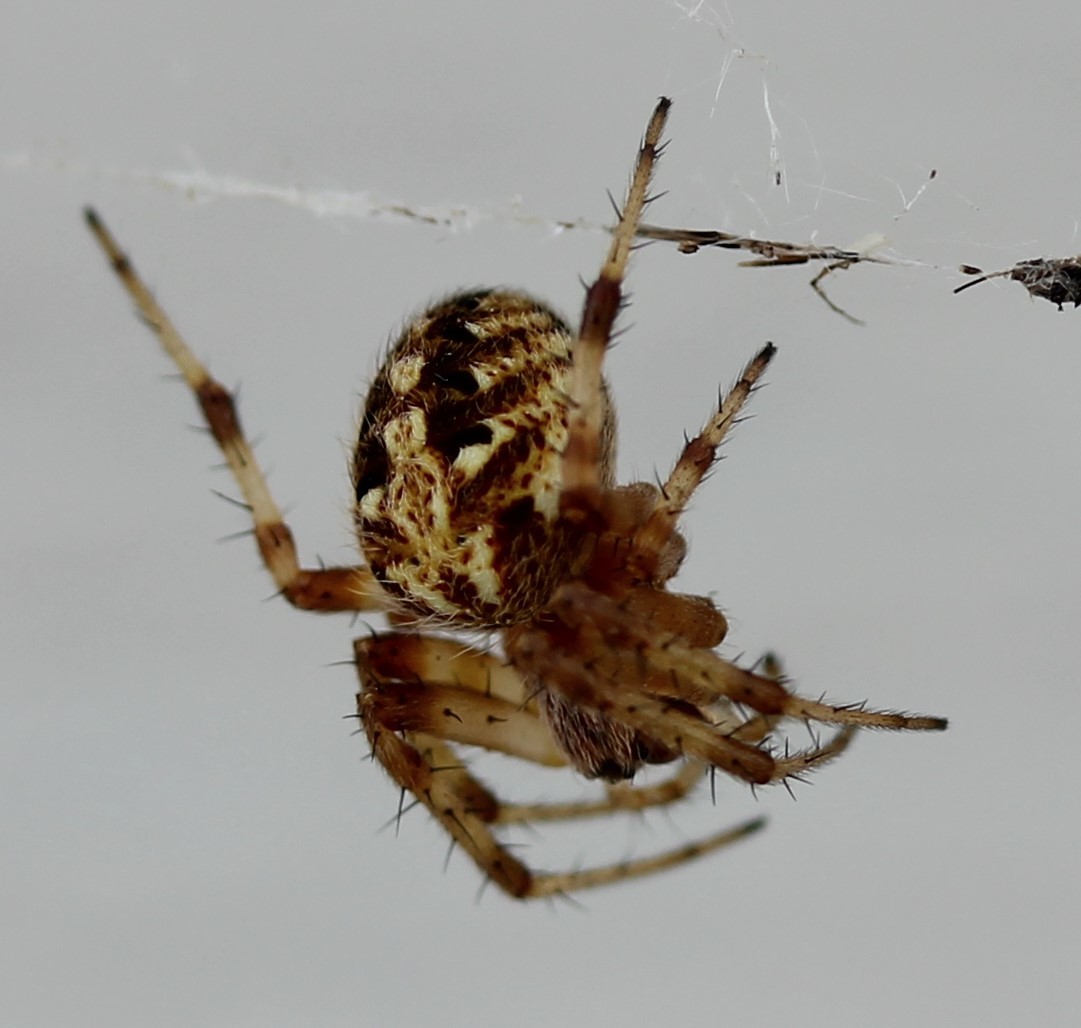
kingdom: Animalia
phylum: Arthropoda
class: Arachnida
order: Araneae
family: Araneidae
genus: Neoscona
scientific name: Neoscona arabesca
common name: Orb weavers
